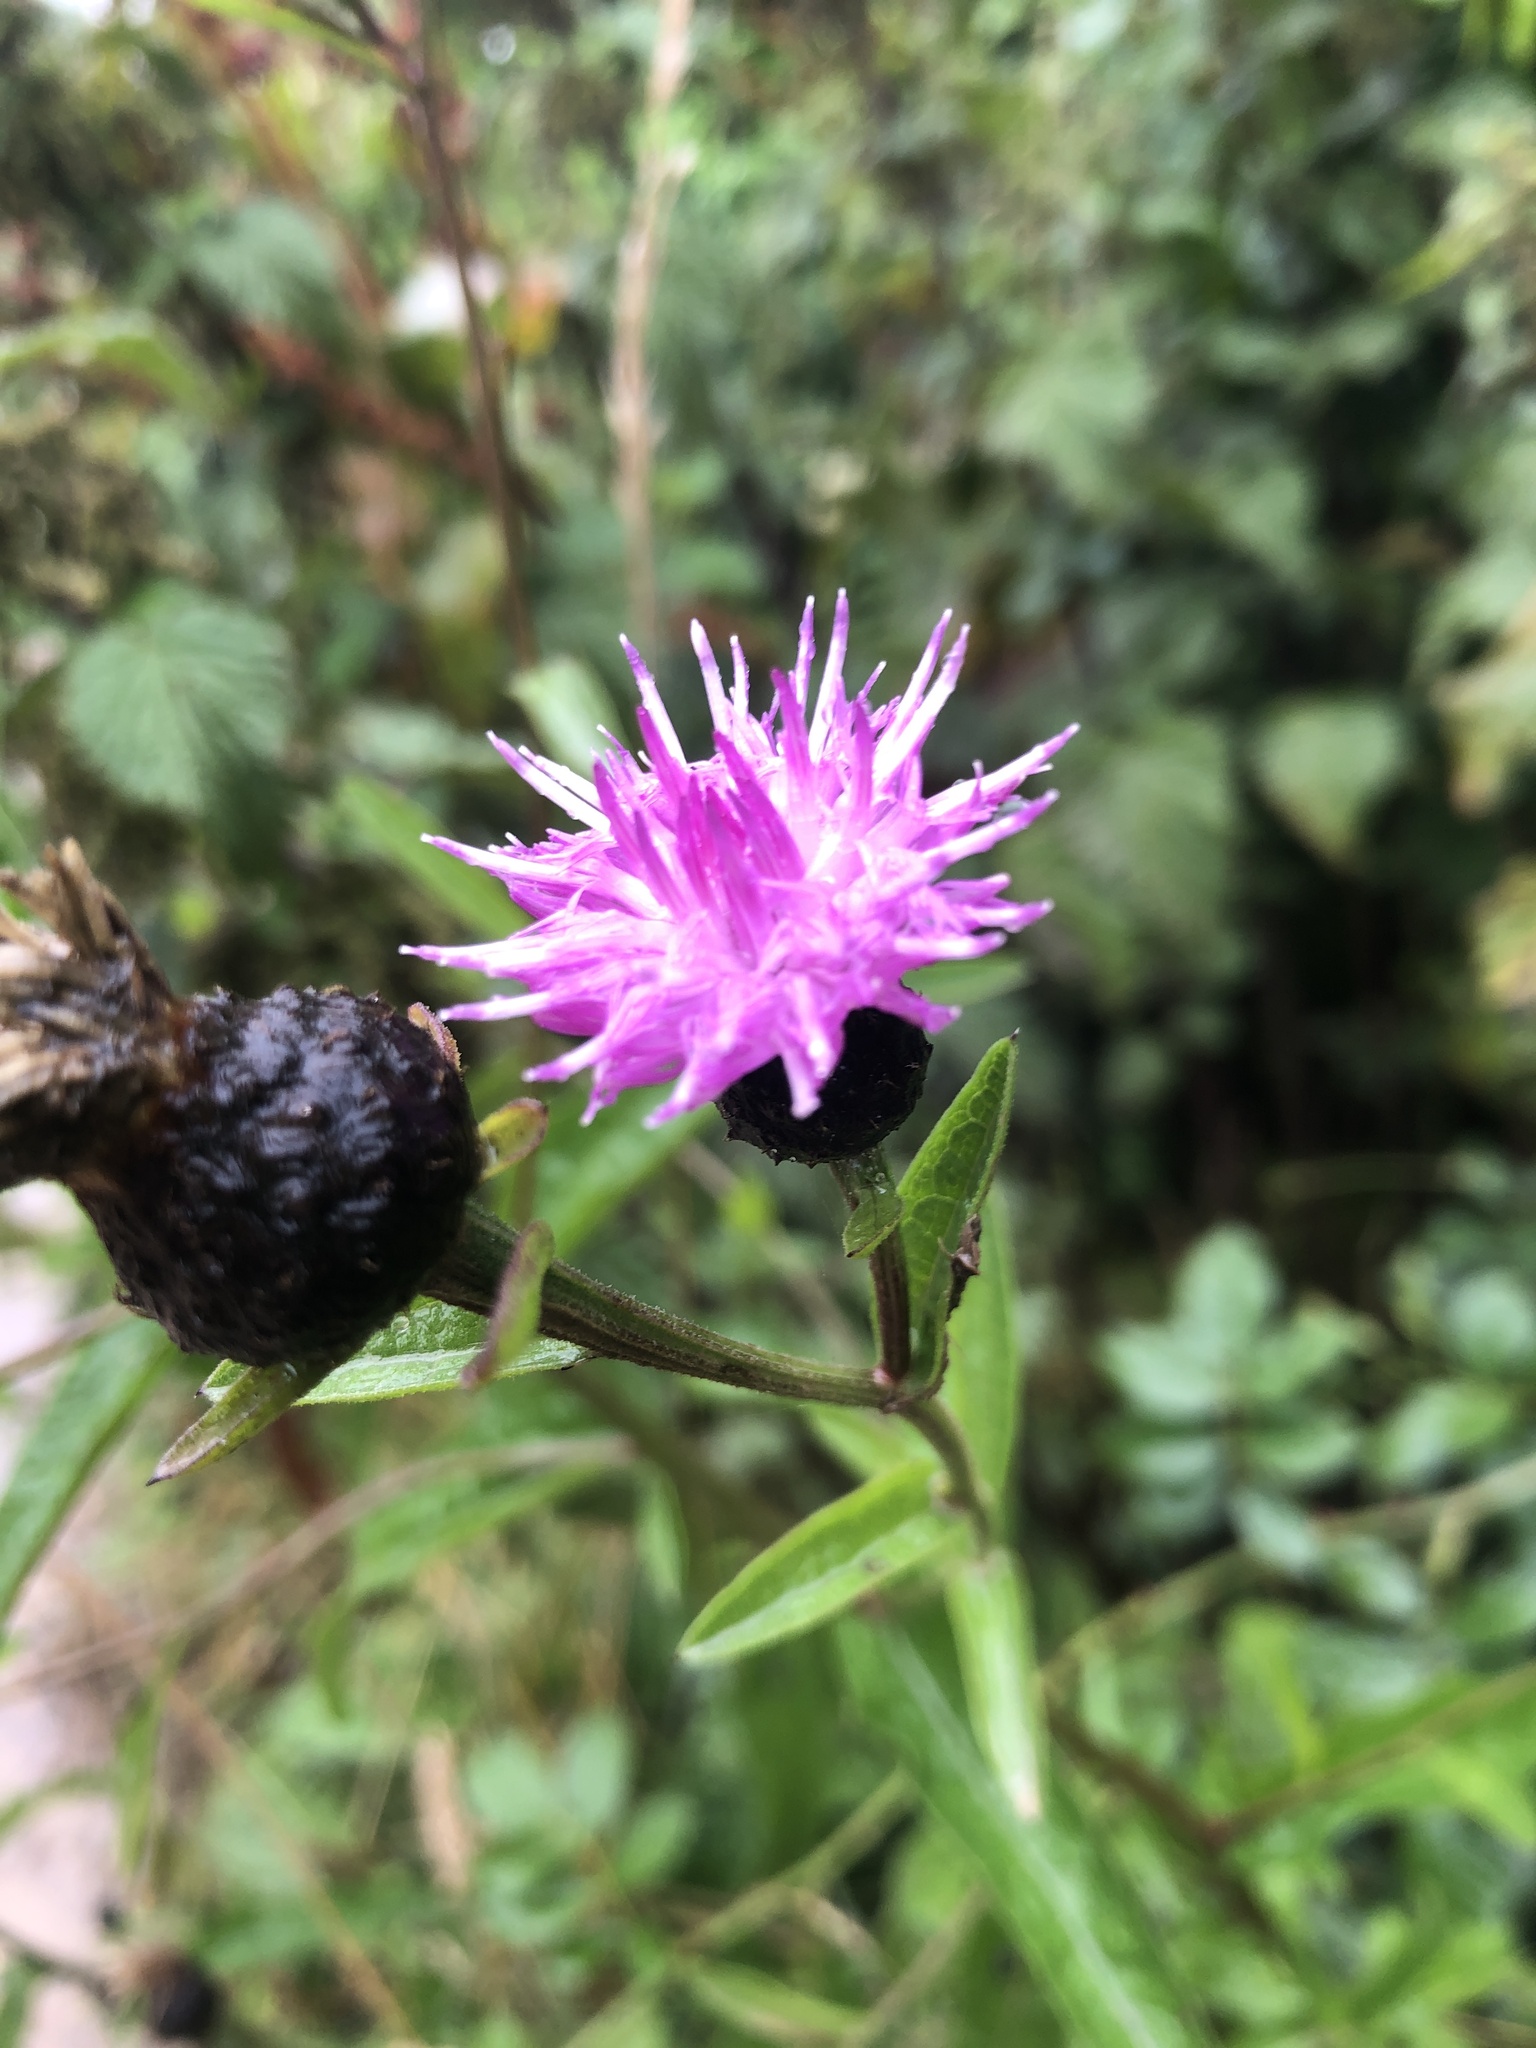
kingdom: Plantae
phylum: Tracheophyta
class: Magnoliopsida
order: Asterales
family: Asteraceae
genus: Centaurea
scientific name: Centaurea nigra
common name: Lesser knapweed
